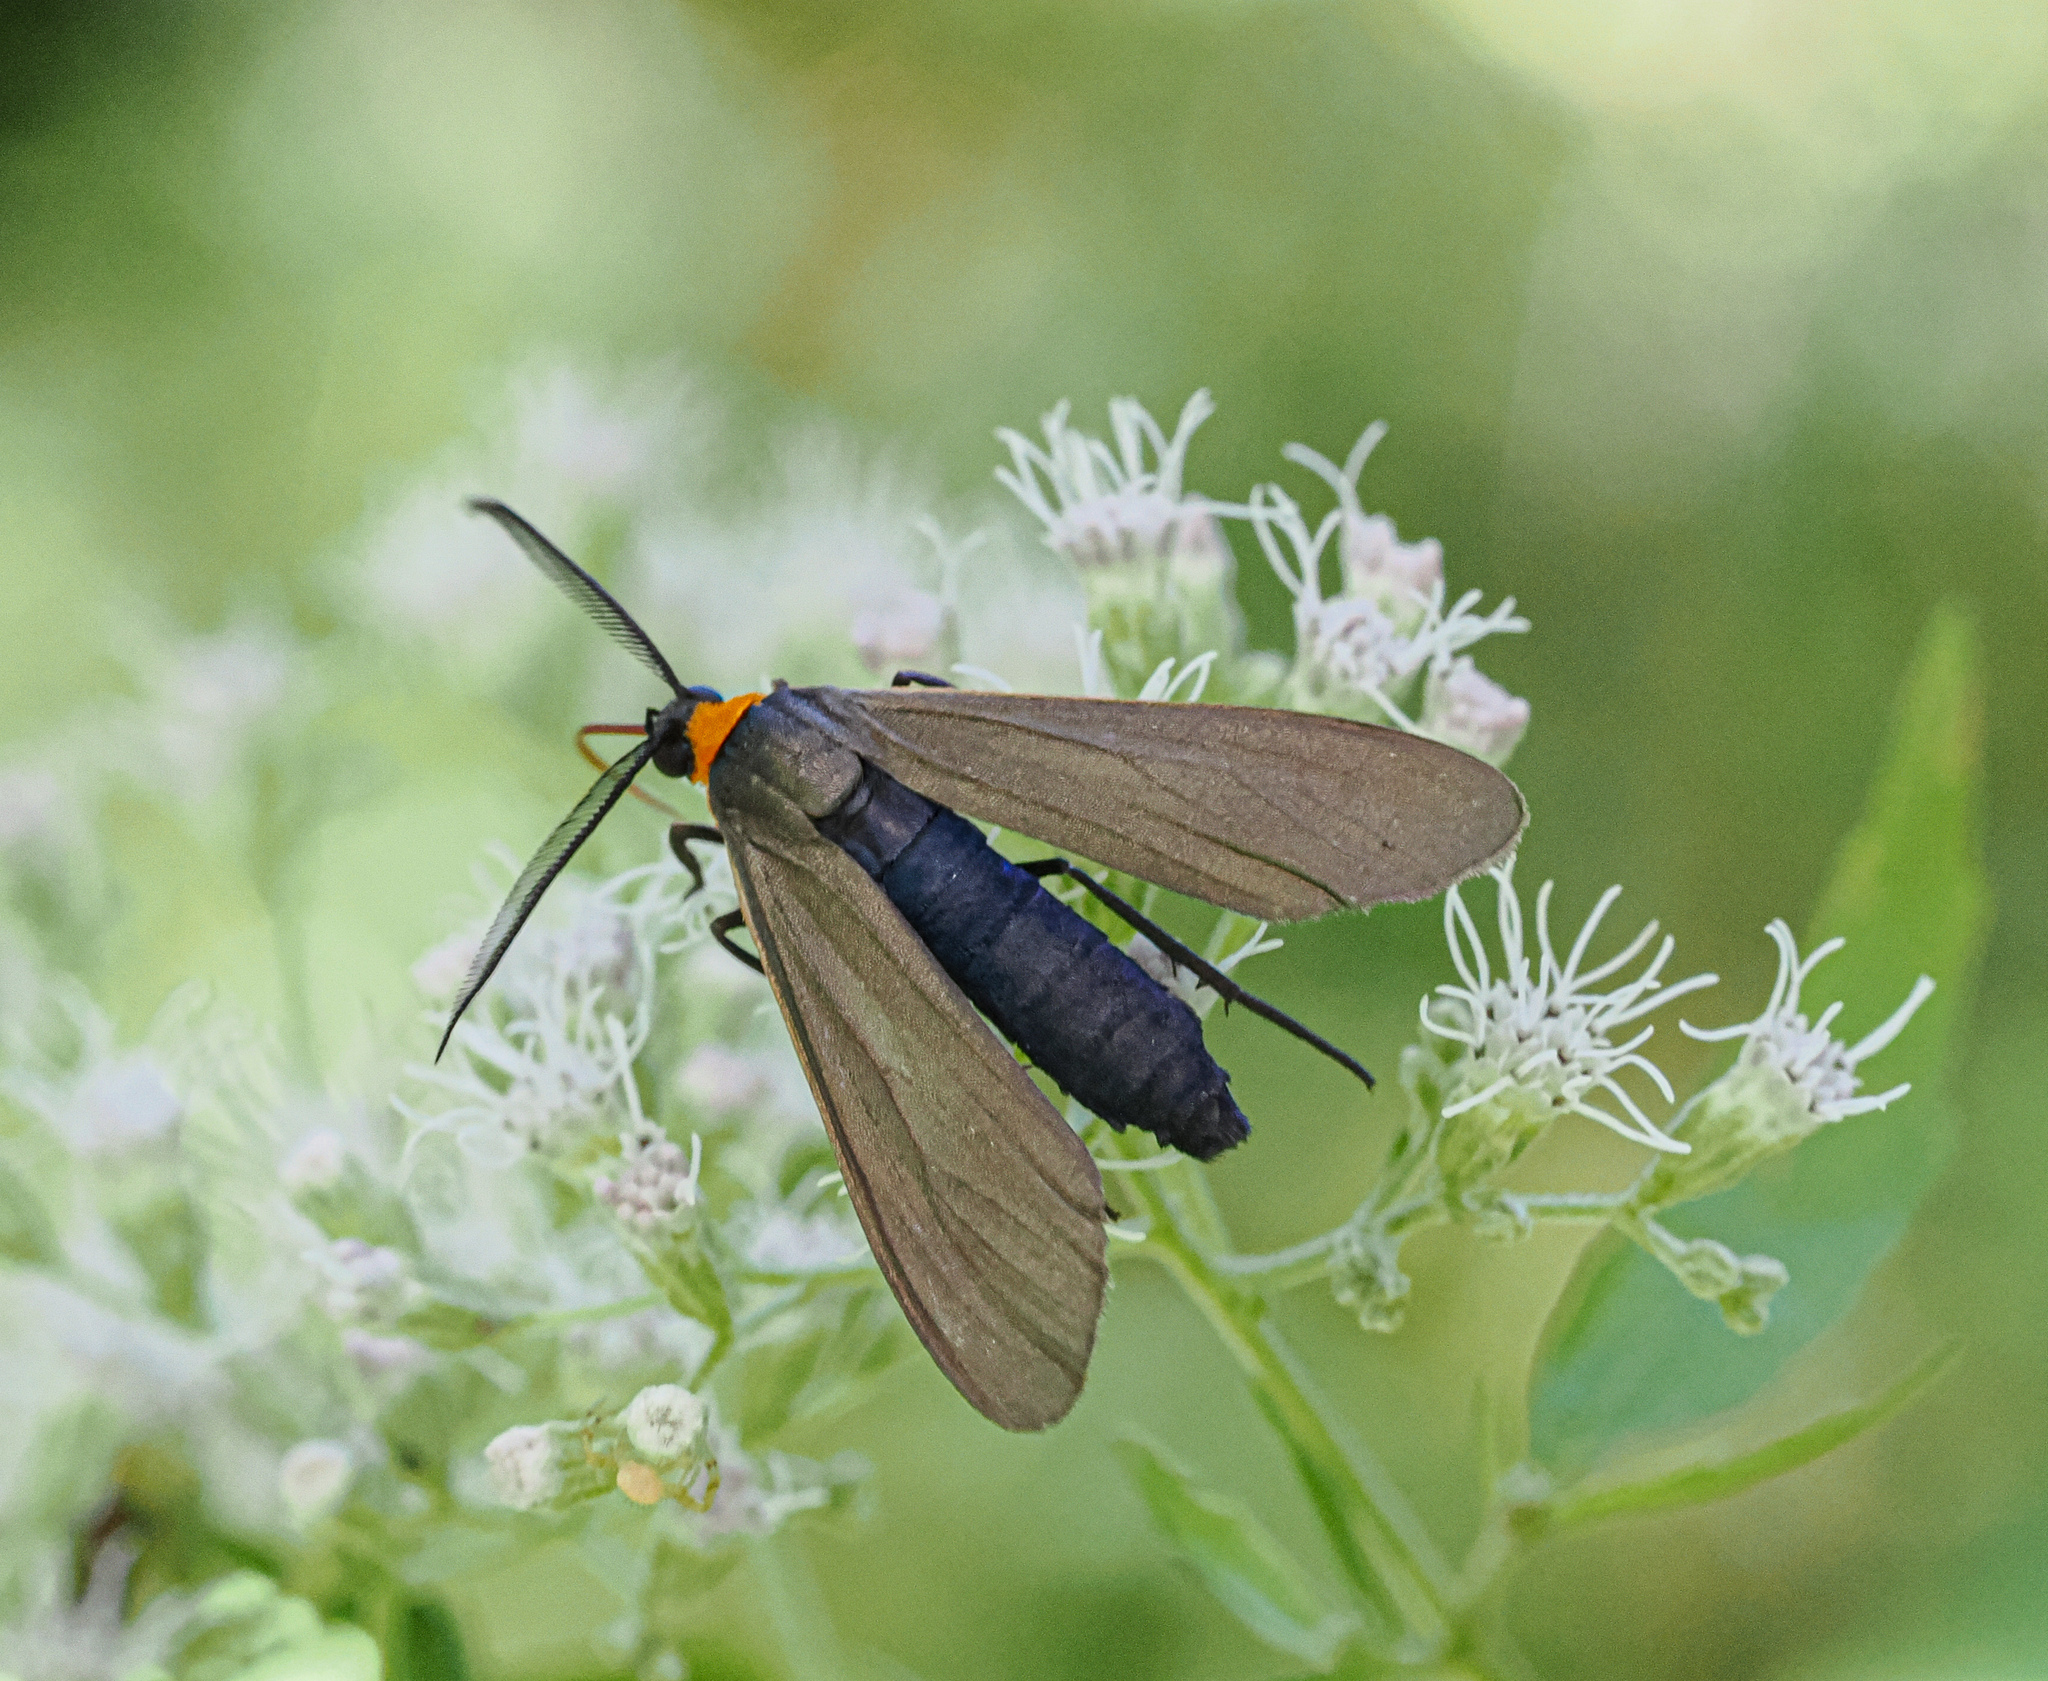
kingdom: Animalia
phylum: Arthropoda
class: Insecta
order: Lepidoptera
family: Erebidae
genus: Cisseps
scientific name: Cisseps fulvicollis
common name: Yellow-collared scape moth
